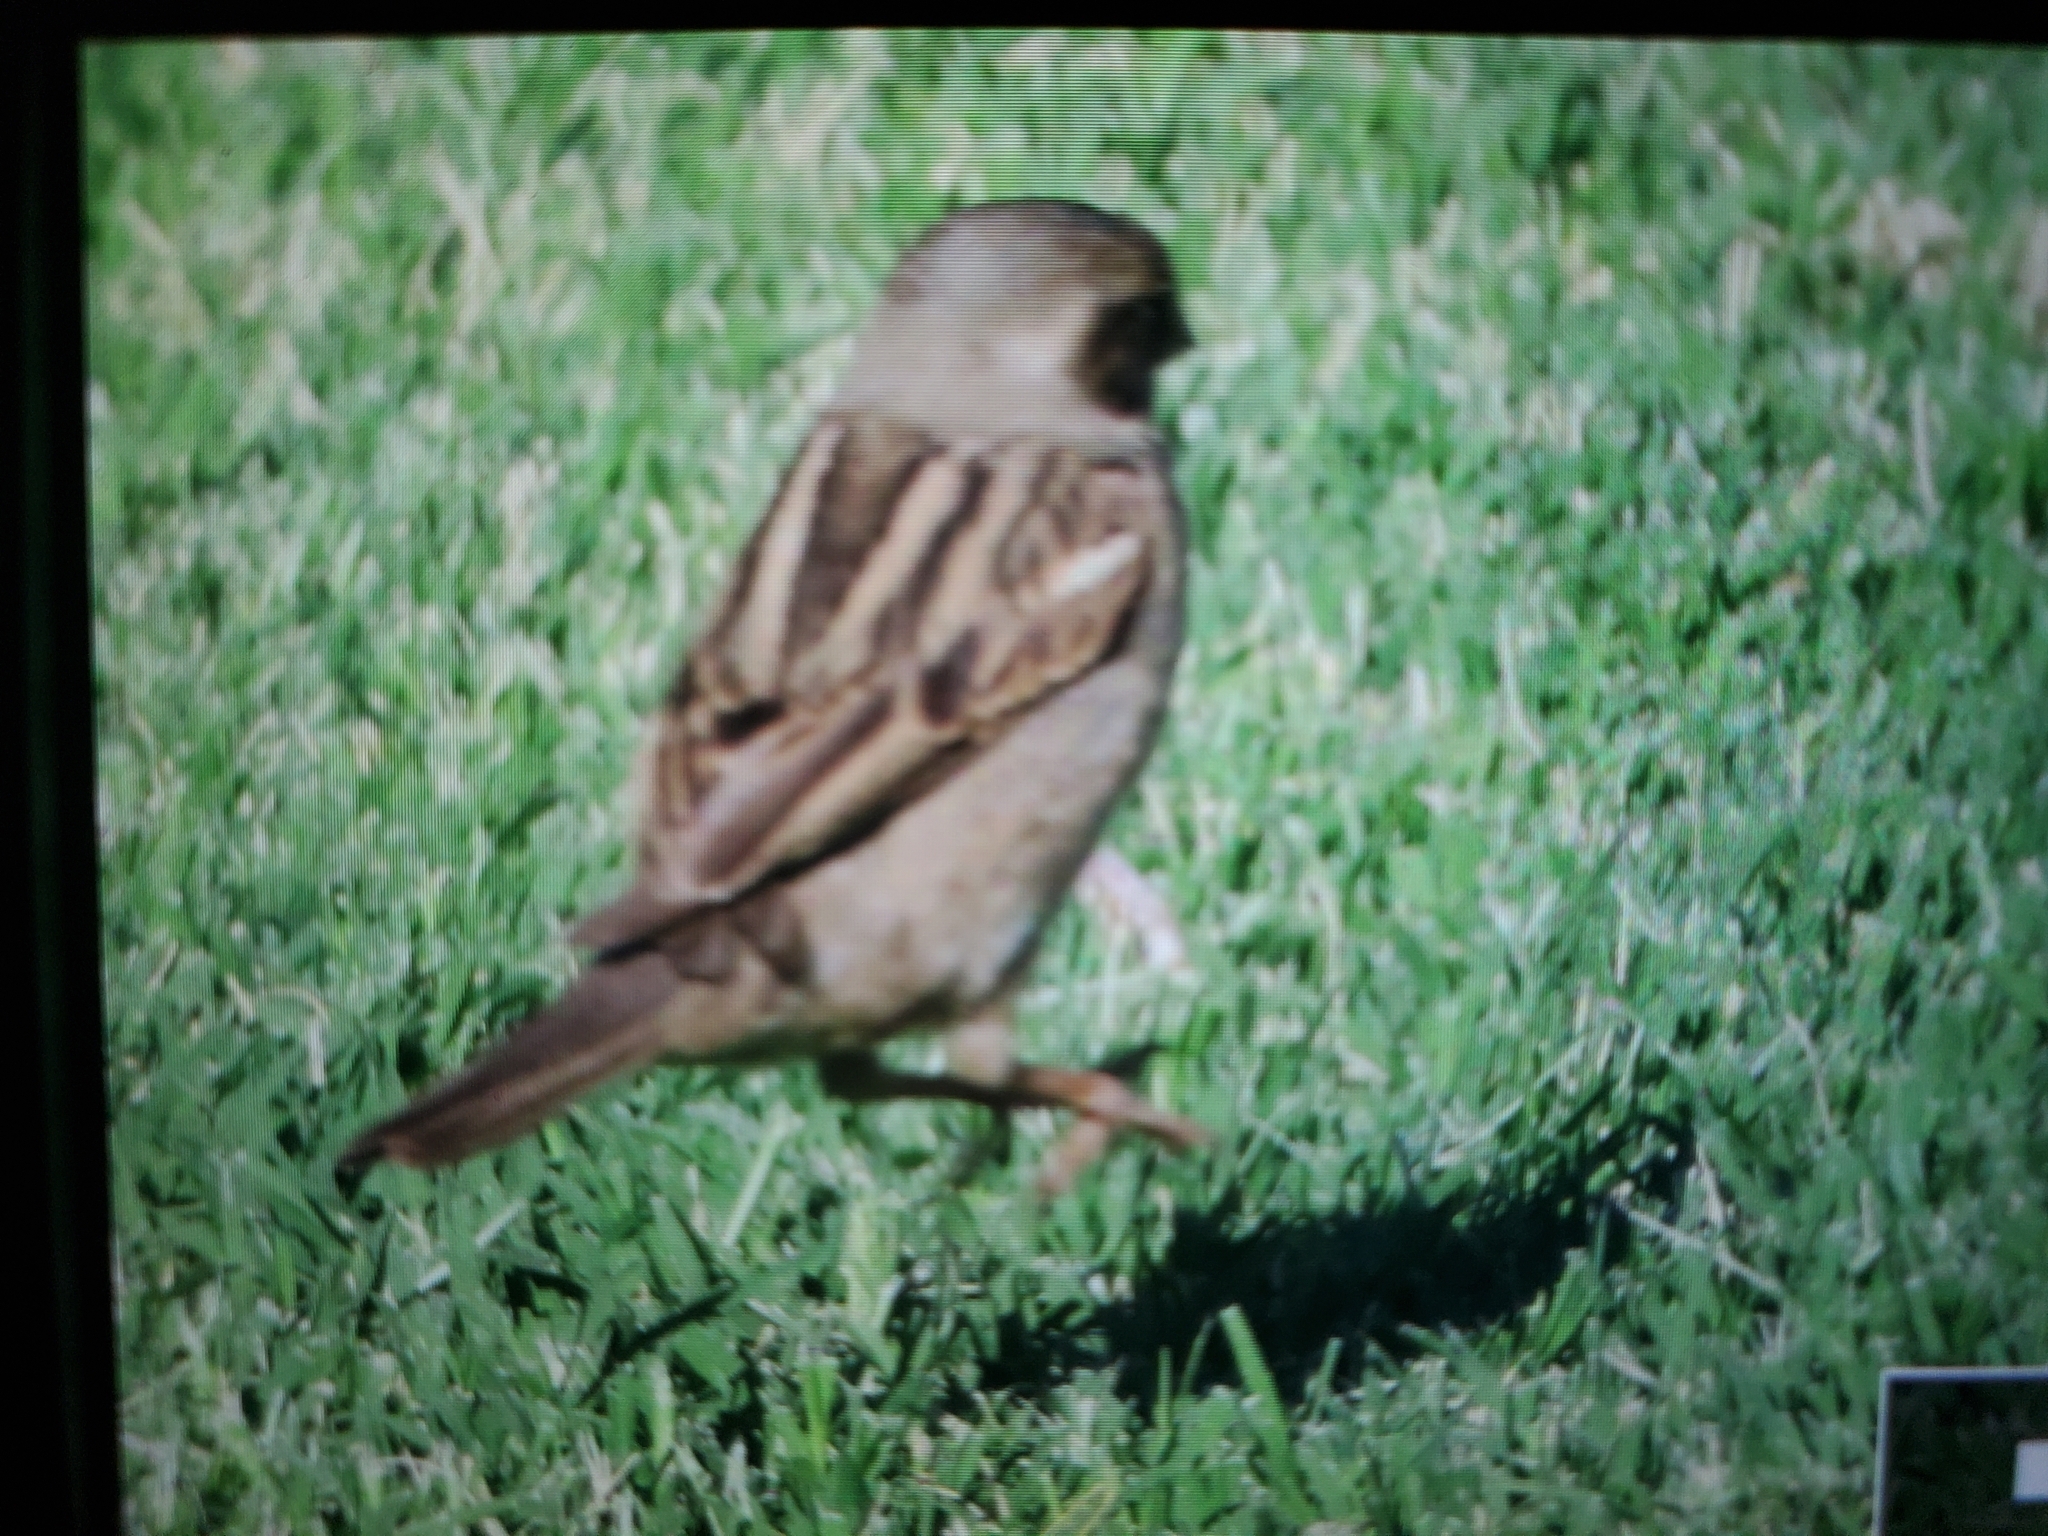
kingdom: Animalia
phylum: Chordata
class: Aves
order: Passeriformes
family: Passeridae
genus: Passer
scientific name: Passer domesticus
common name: House sparrow
